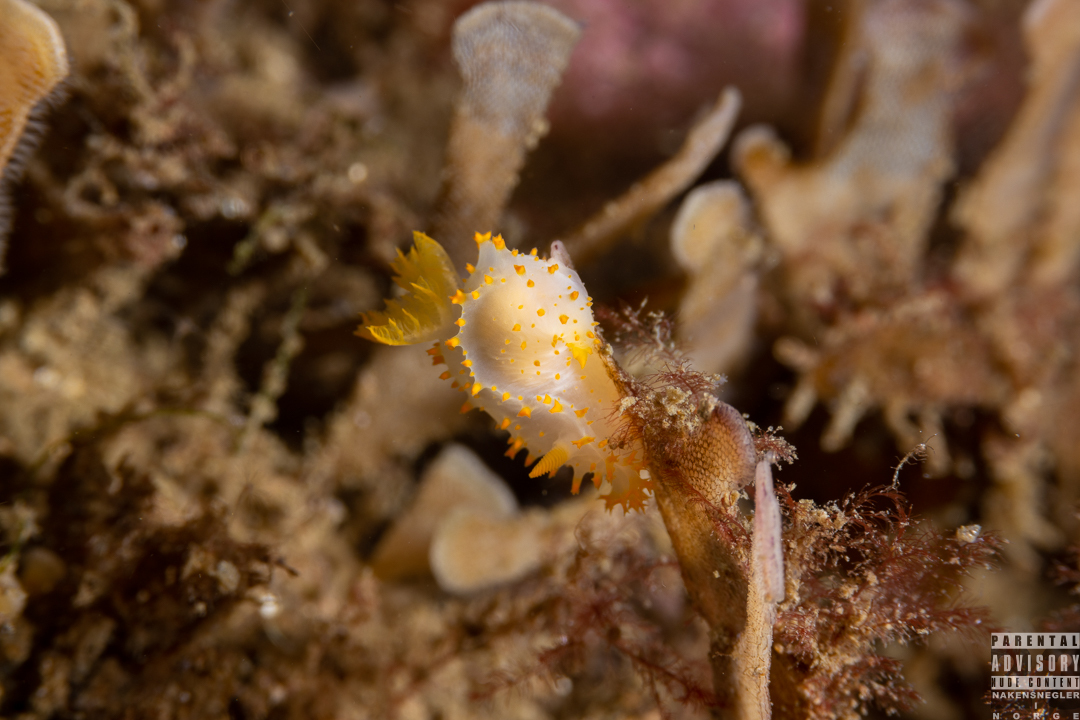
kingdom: Animalia
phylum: Mollusca
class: Gastropoda
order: Nudibranchia
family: Polyceridae
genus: Crimora
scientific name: Crimora papillata
